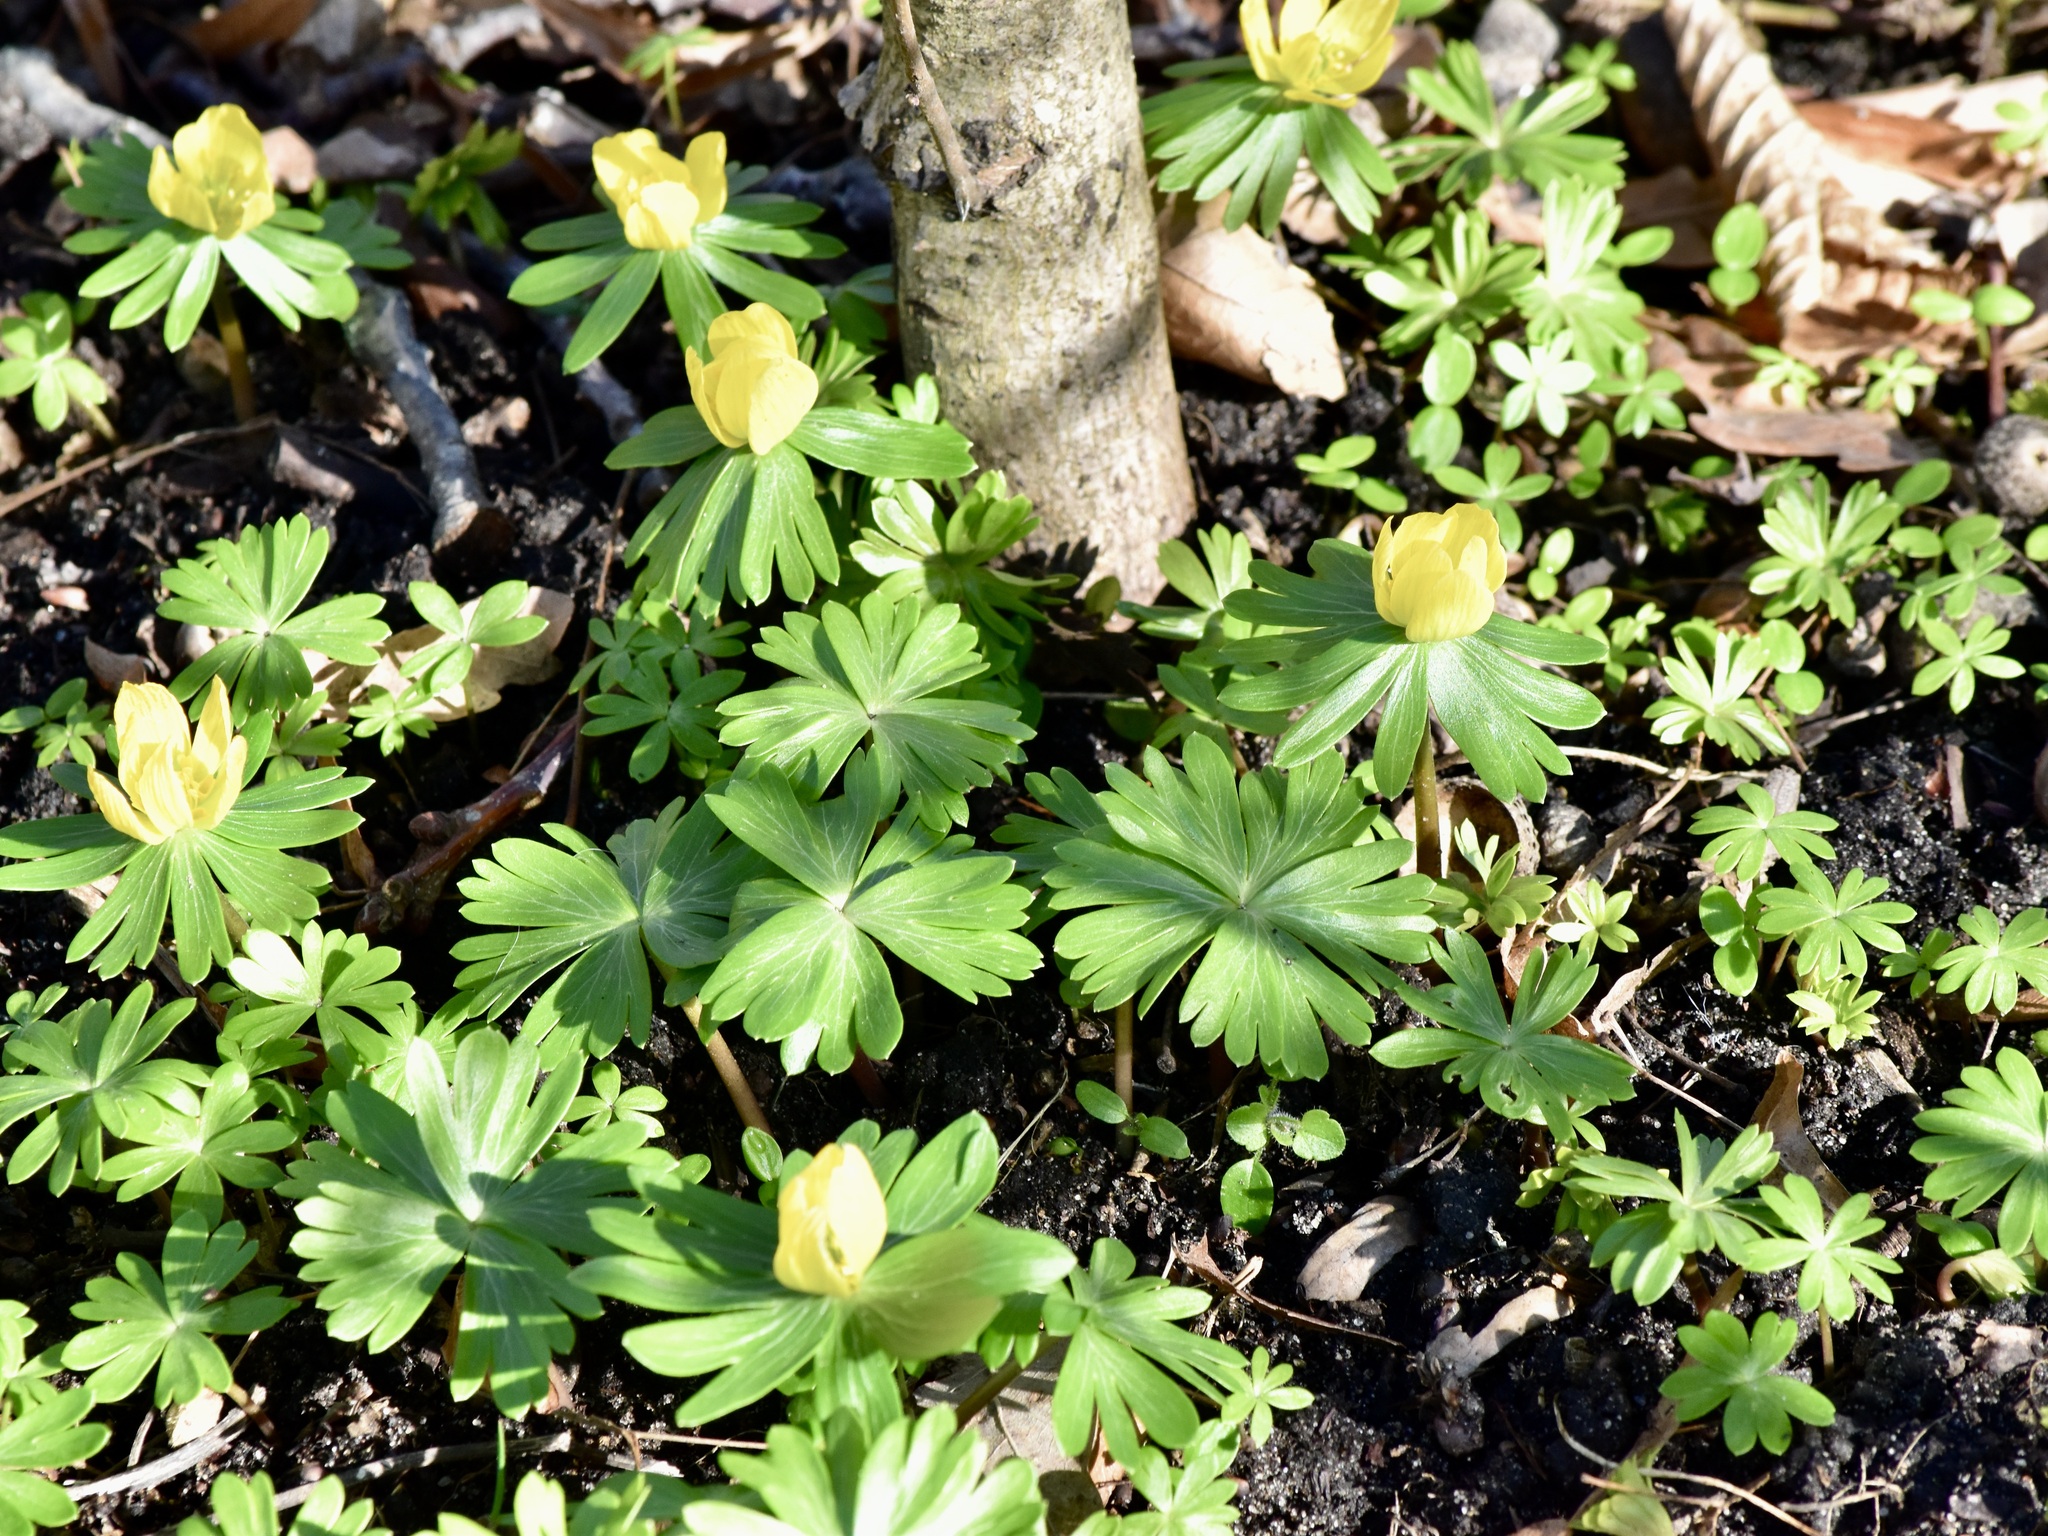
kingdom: Plantae
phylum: Tracheophyta
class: Magnoliopsida
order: Ranunculales
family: Ranunculaceae
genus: Eranthis
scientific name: Eranthis hyemalis
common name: Winter aconite
